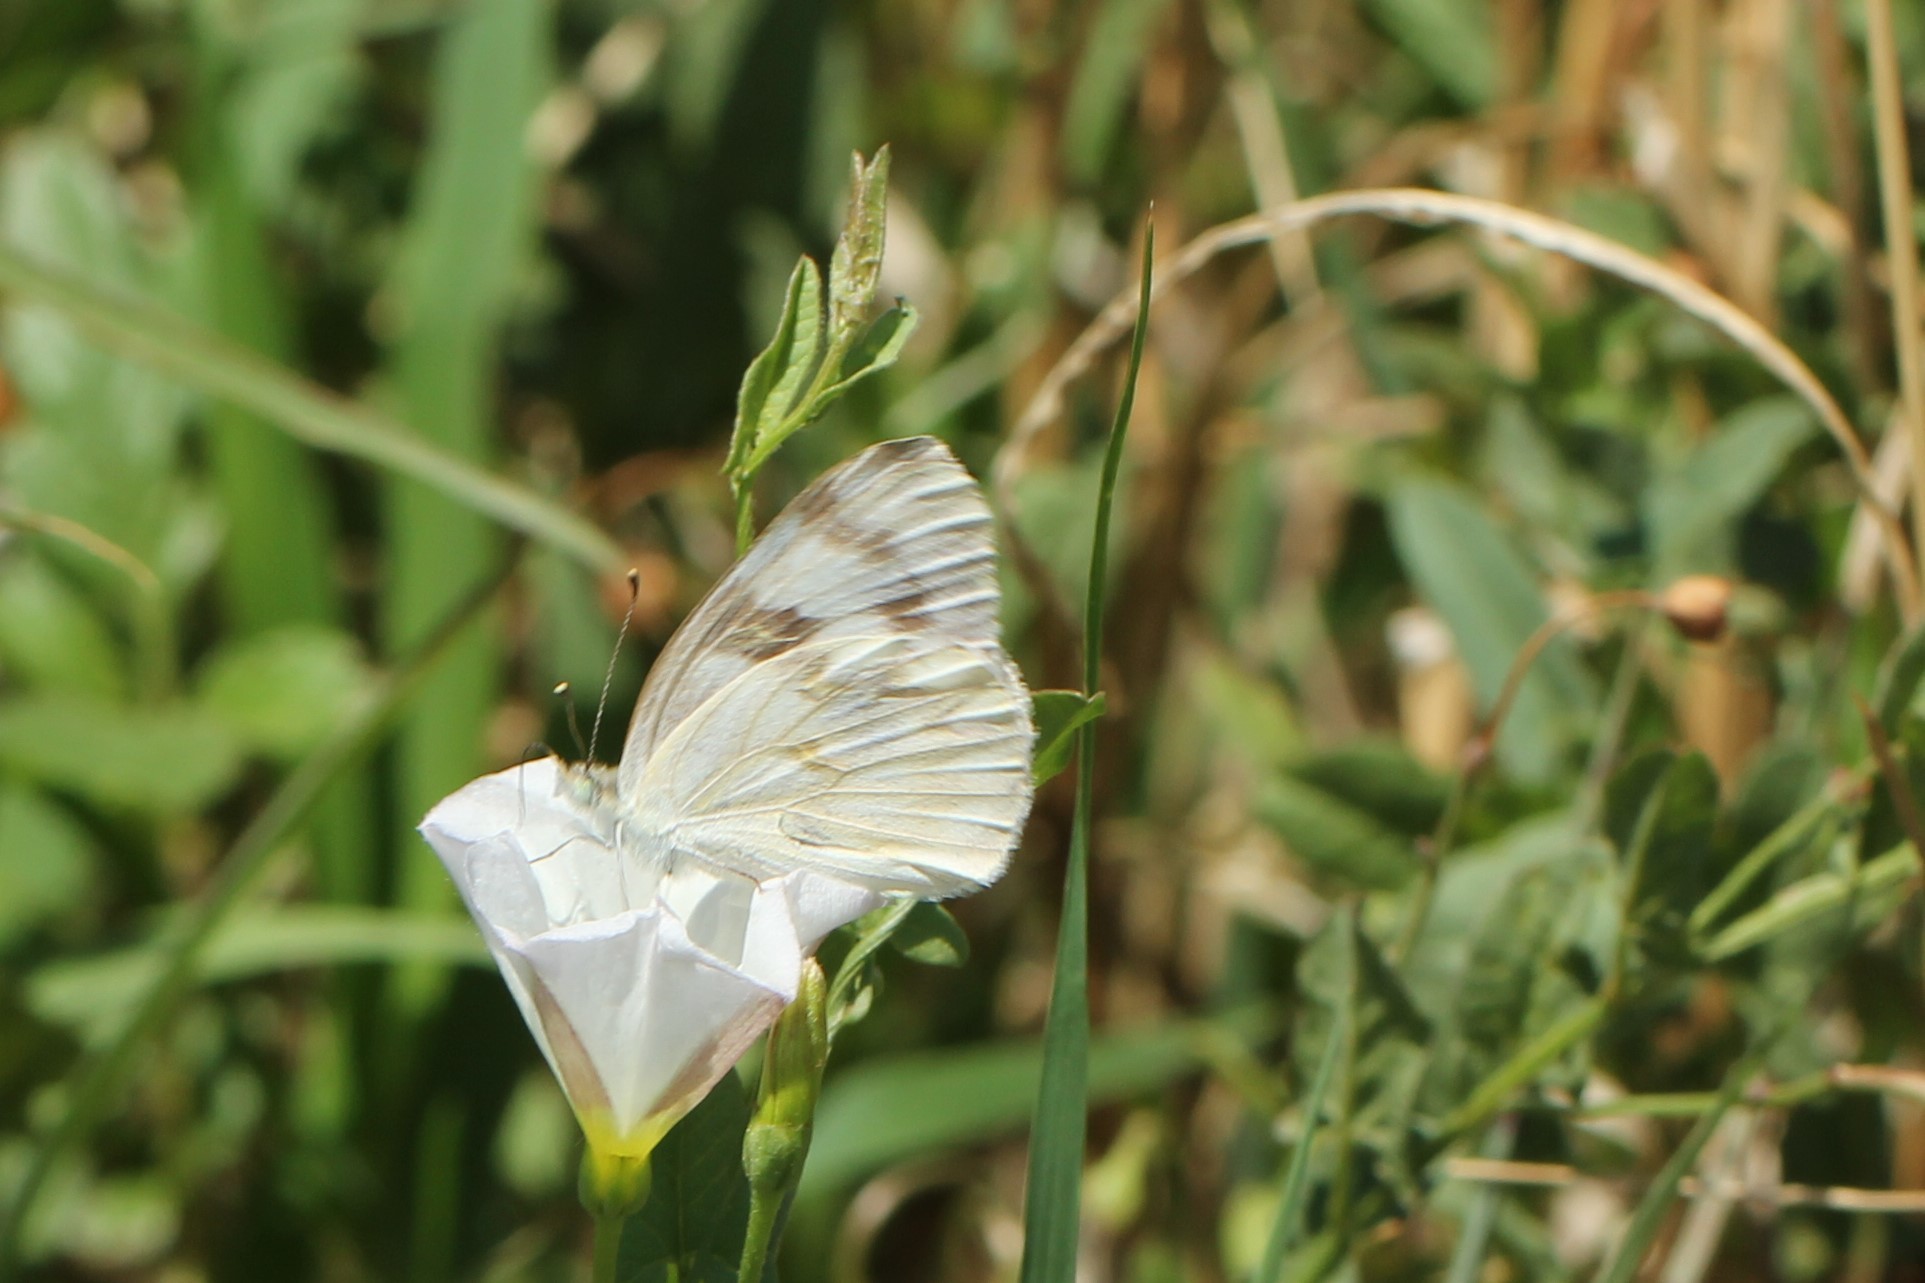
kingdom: Animalia
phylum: Arthropoda
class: Insecta
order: Lepidoptera
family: Pieridae
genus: Pontia
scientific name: Pontia protodice
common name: Checkered white
